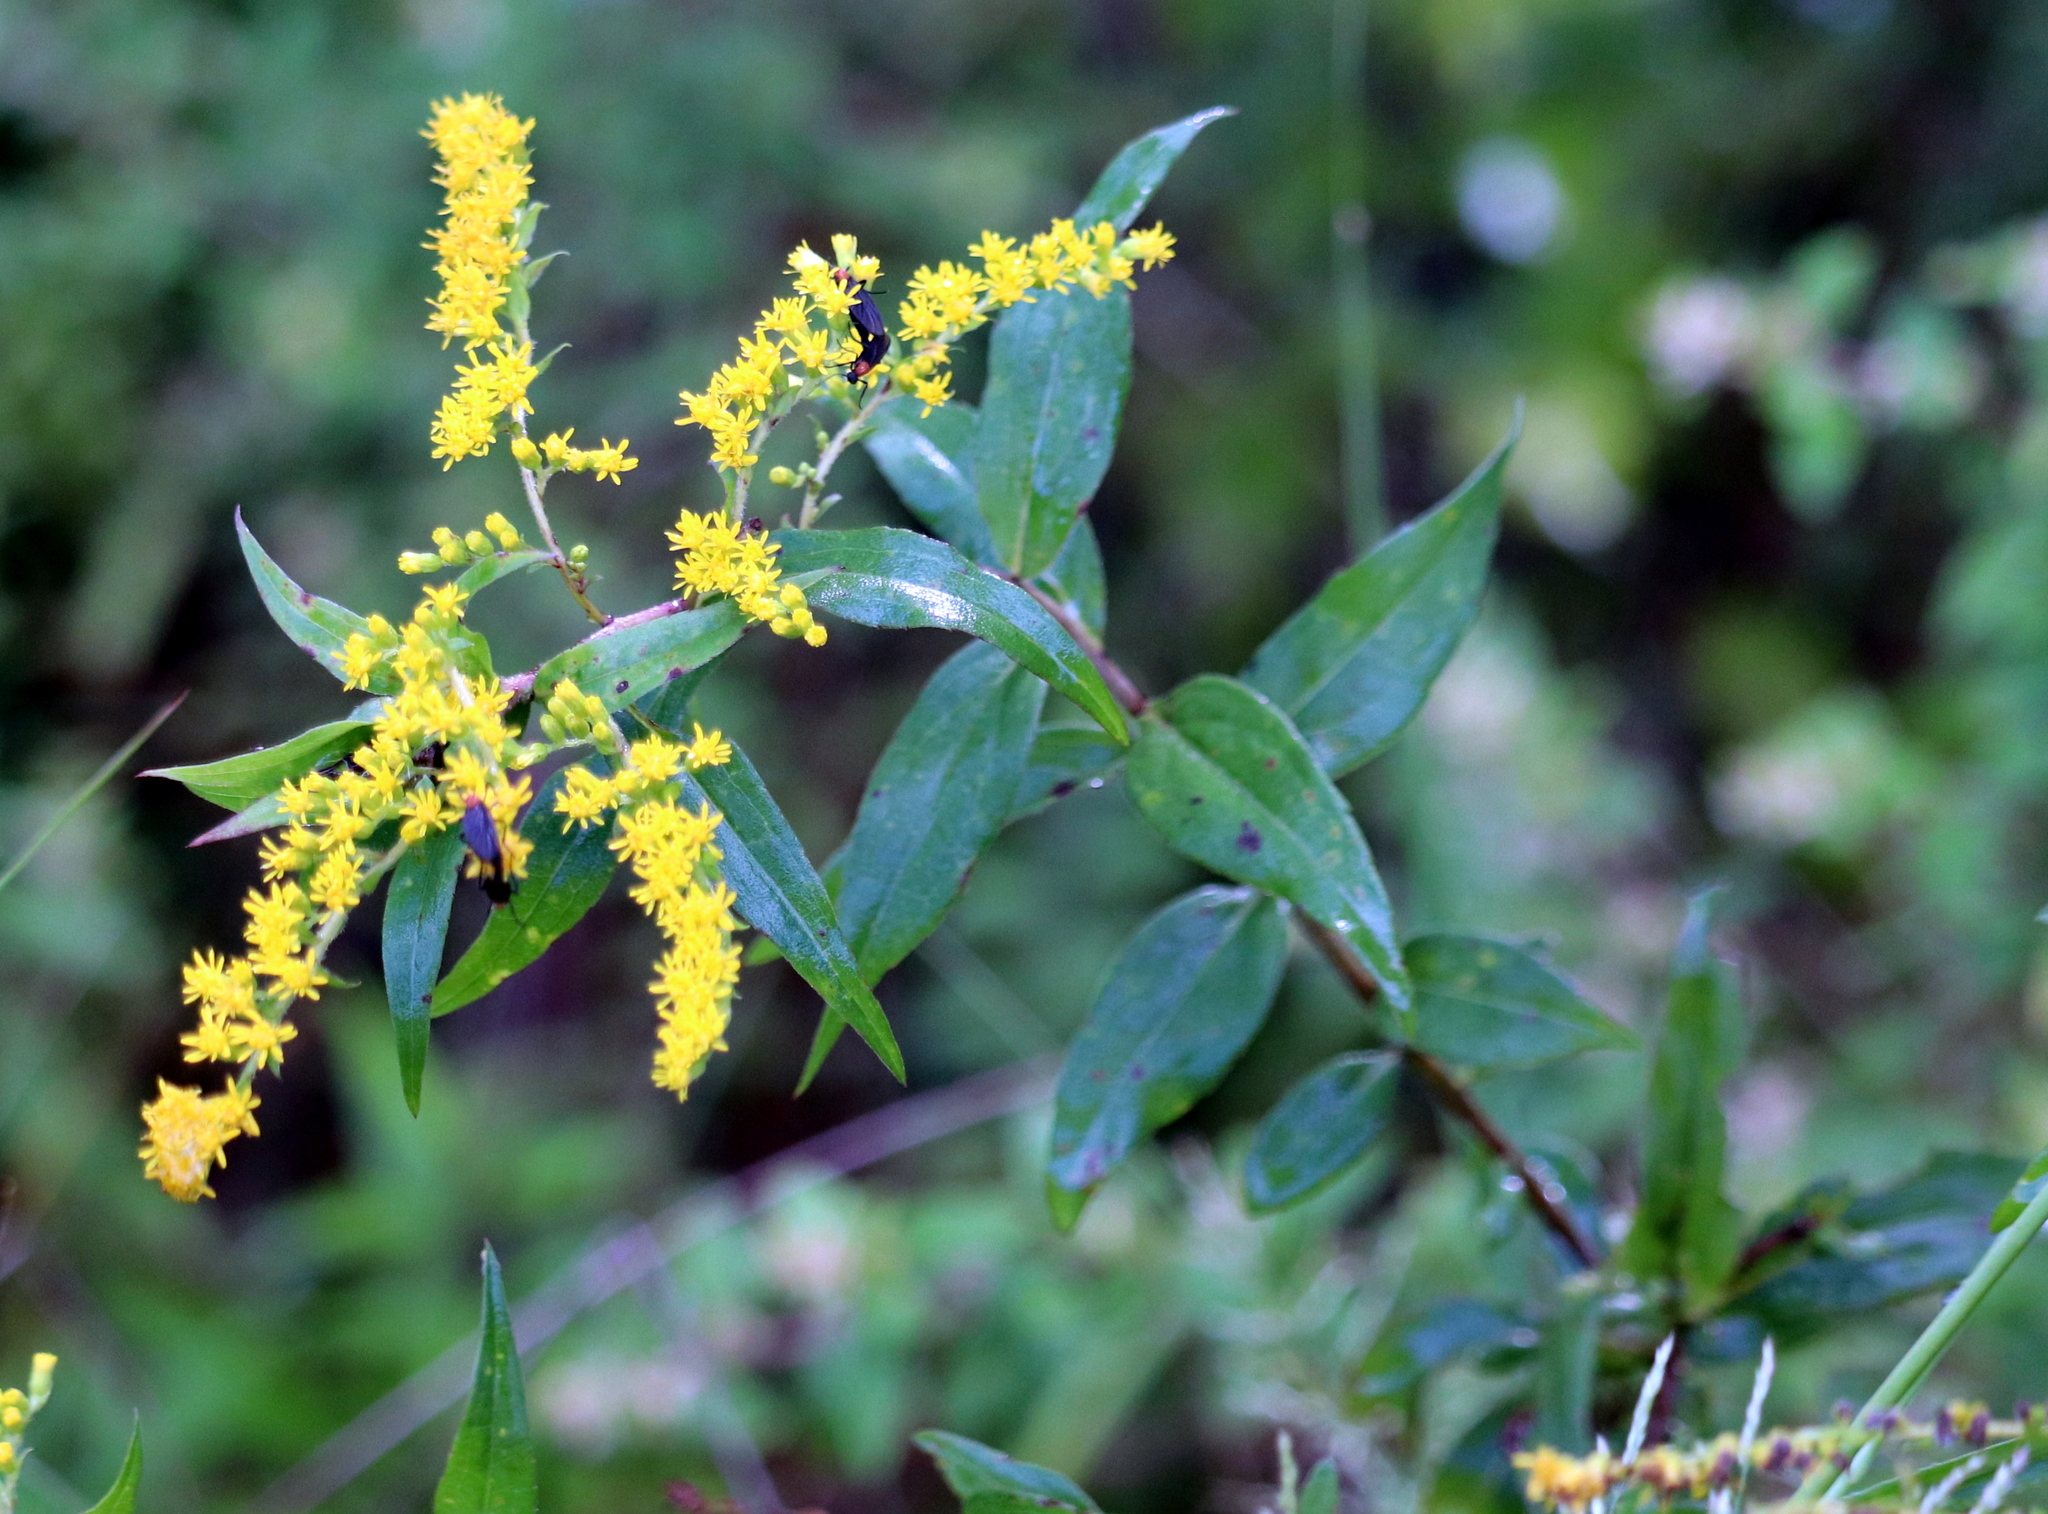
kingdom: Plantae
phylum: Tracheophyta
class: Magnoliopsida
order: Asterales
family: Asteraceae
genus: Solidago
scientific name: Solidago altissima
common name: Late goldenrod
